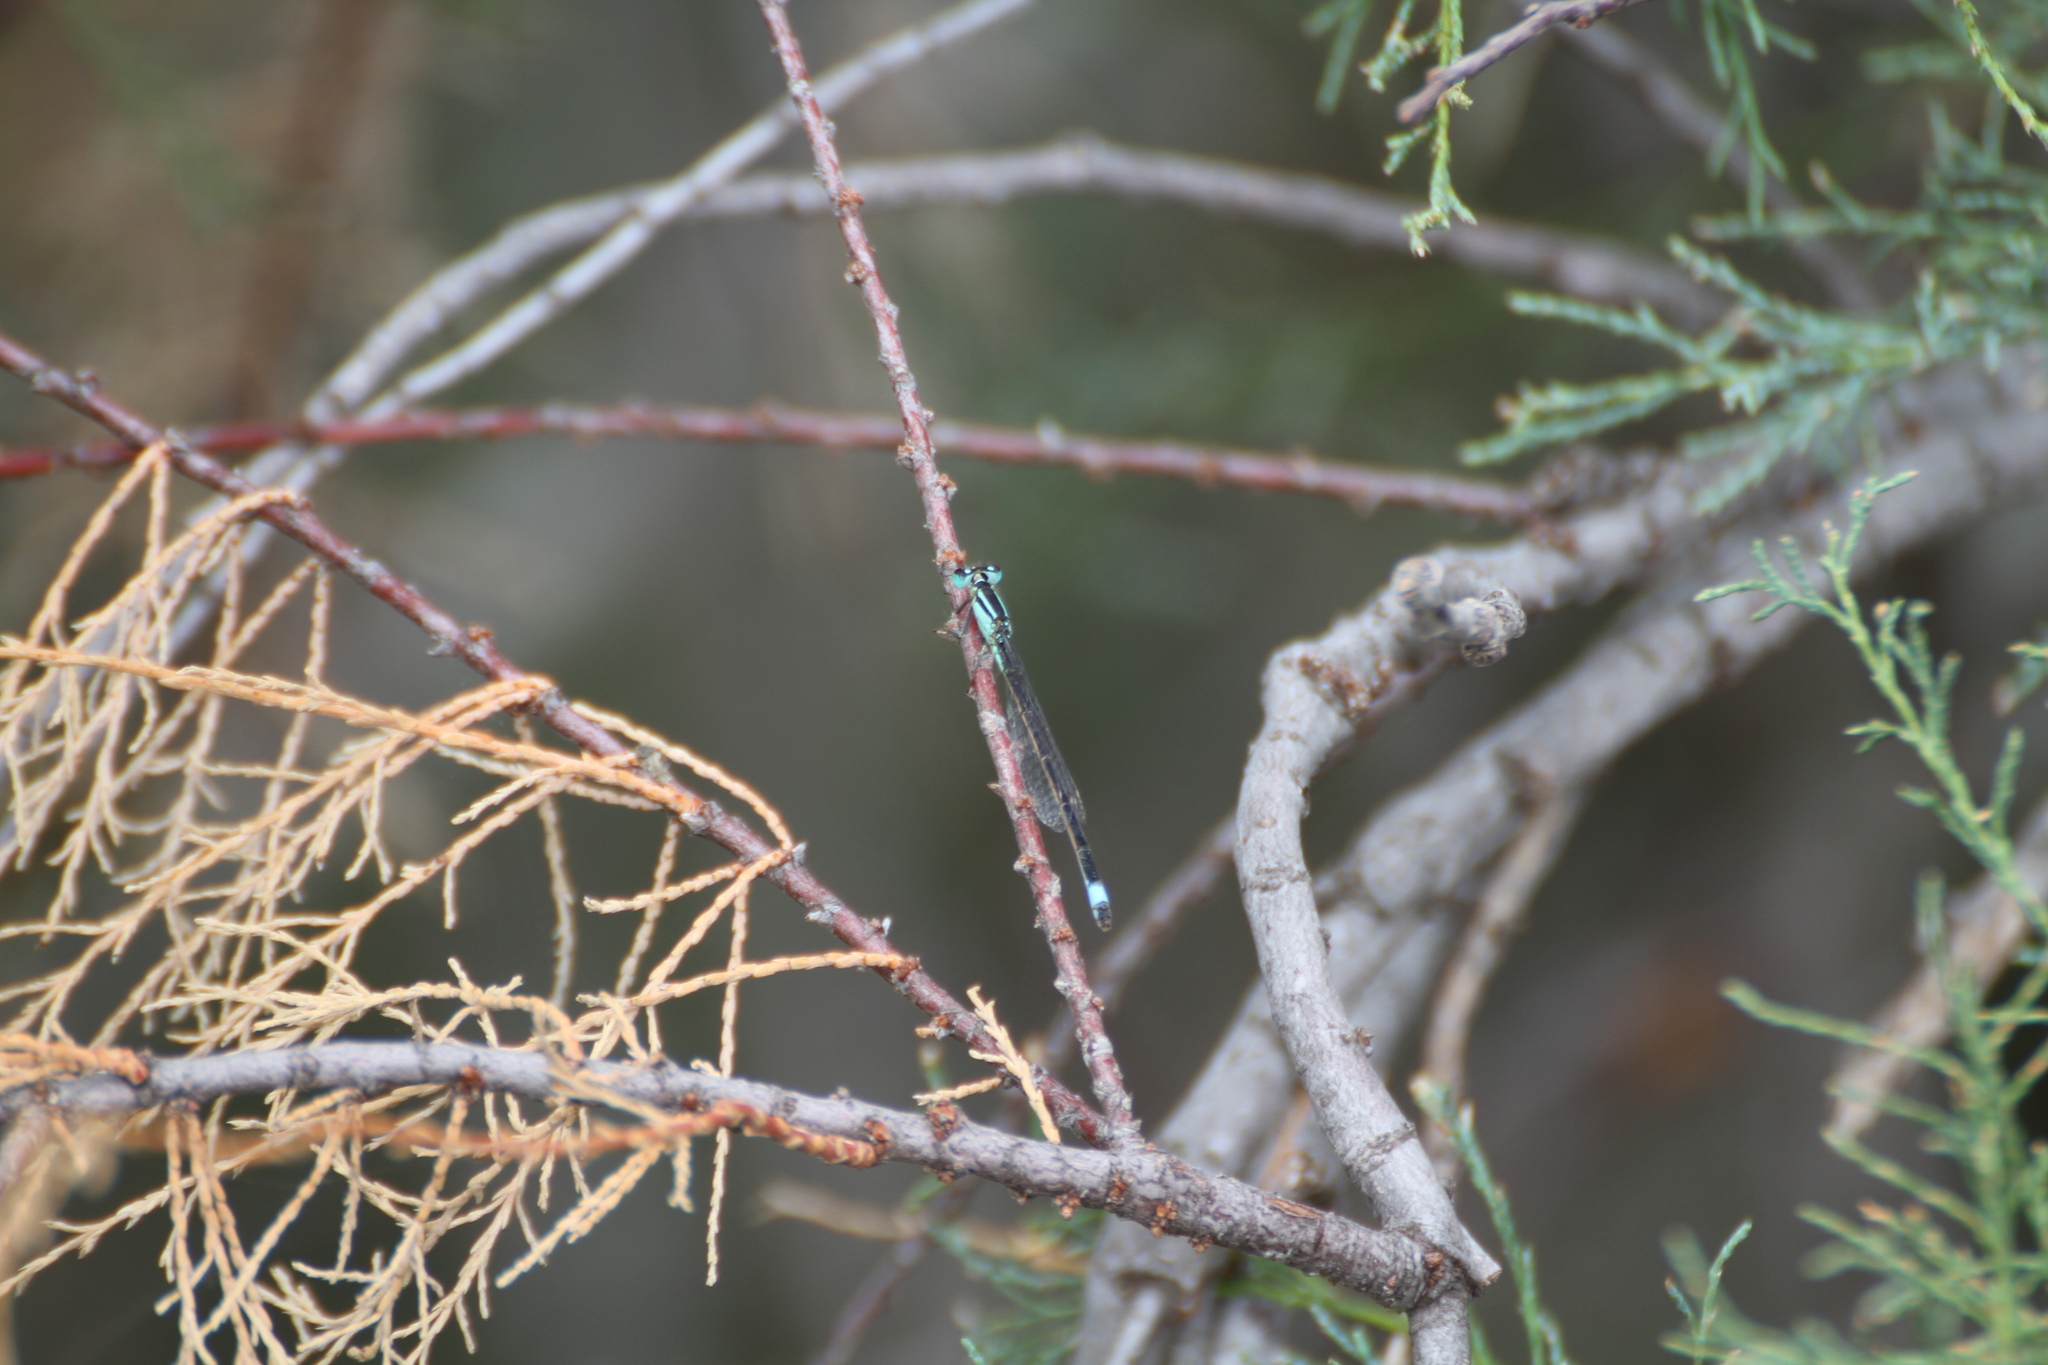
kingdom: Animalia
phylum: Arthropoda
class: Insecta
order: Odonata
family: Coenagrionidae
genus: Ischnura
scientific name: Ischnura elegans
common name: Blue-tailed damselfly
